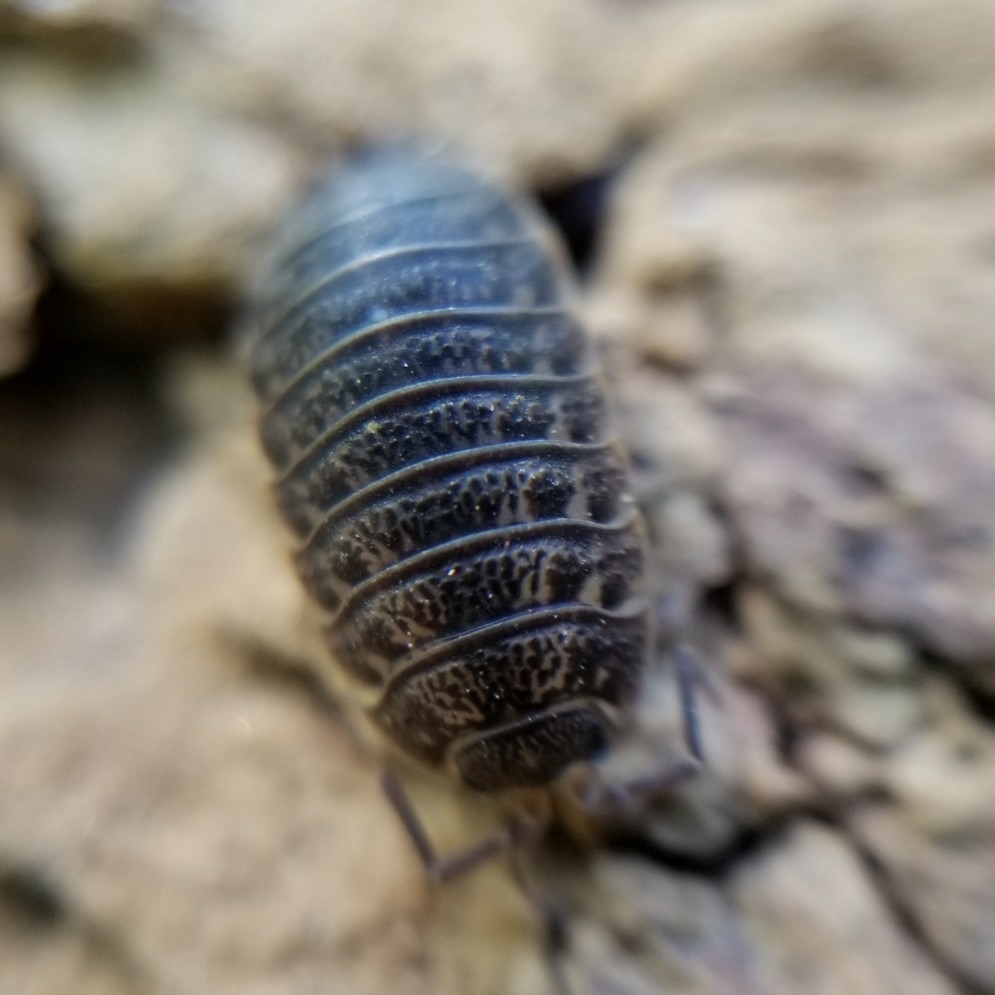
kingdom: Animalia
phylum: Arthropoda
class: Malacostraca
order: Isopoda
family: Trachelipodidae
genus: Trachelipus
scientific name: Trachelipus rathkii
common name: Isopod
